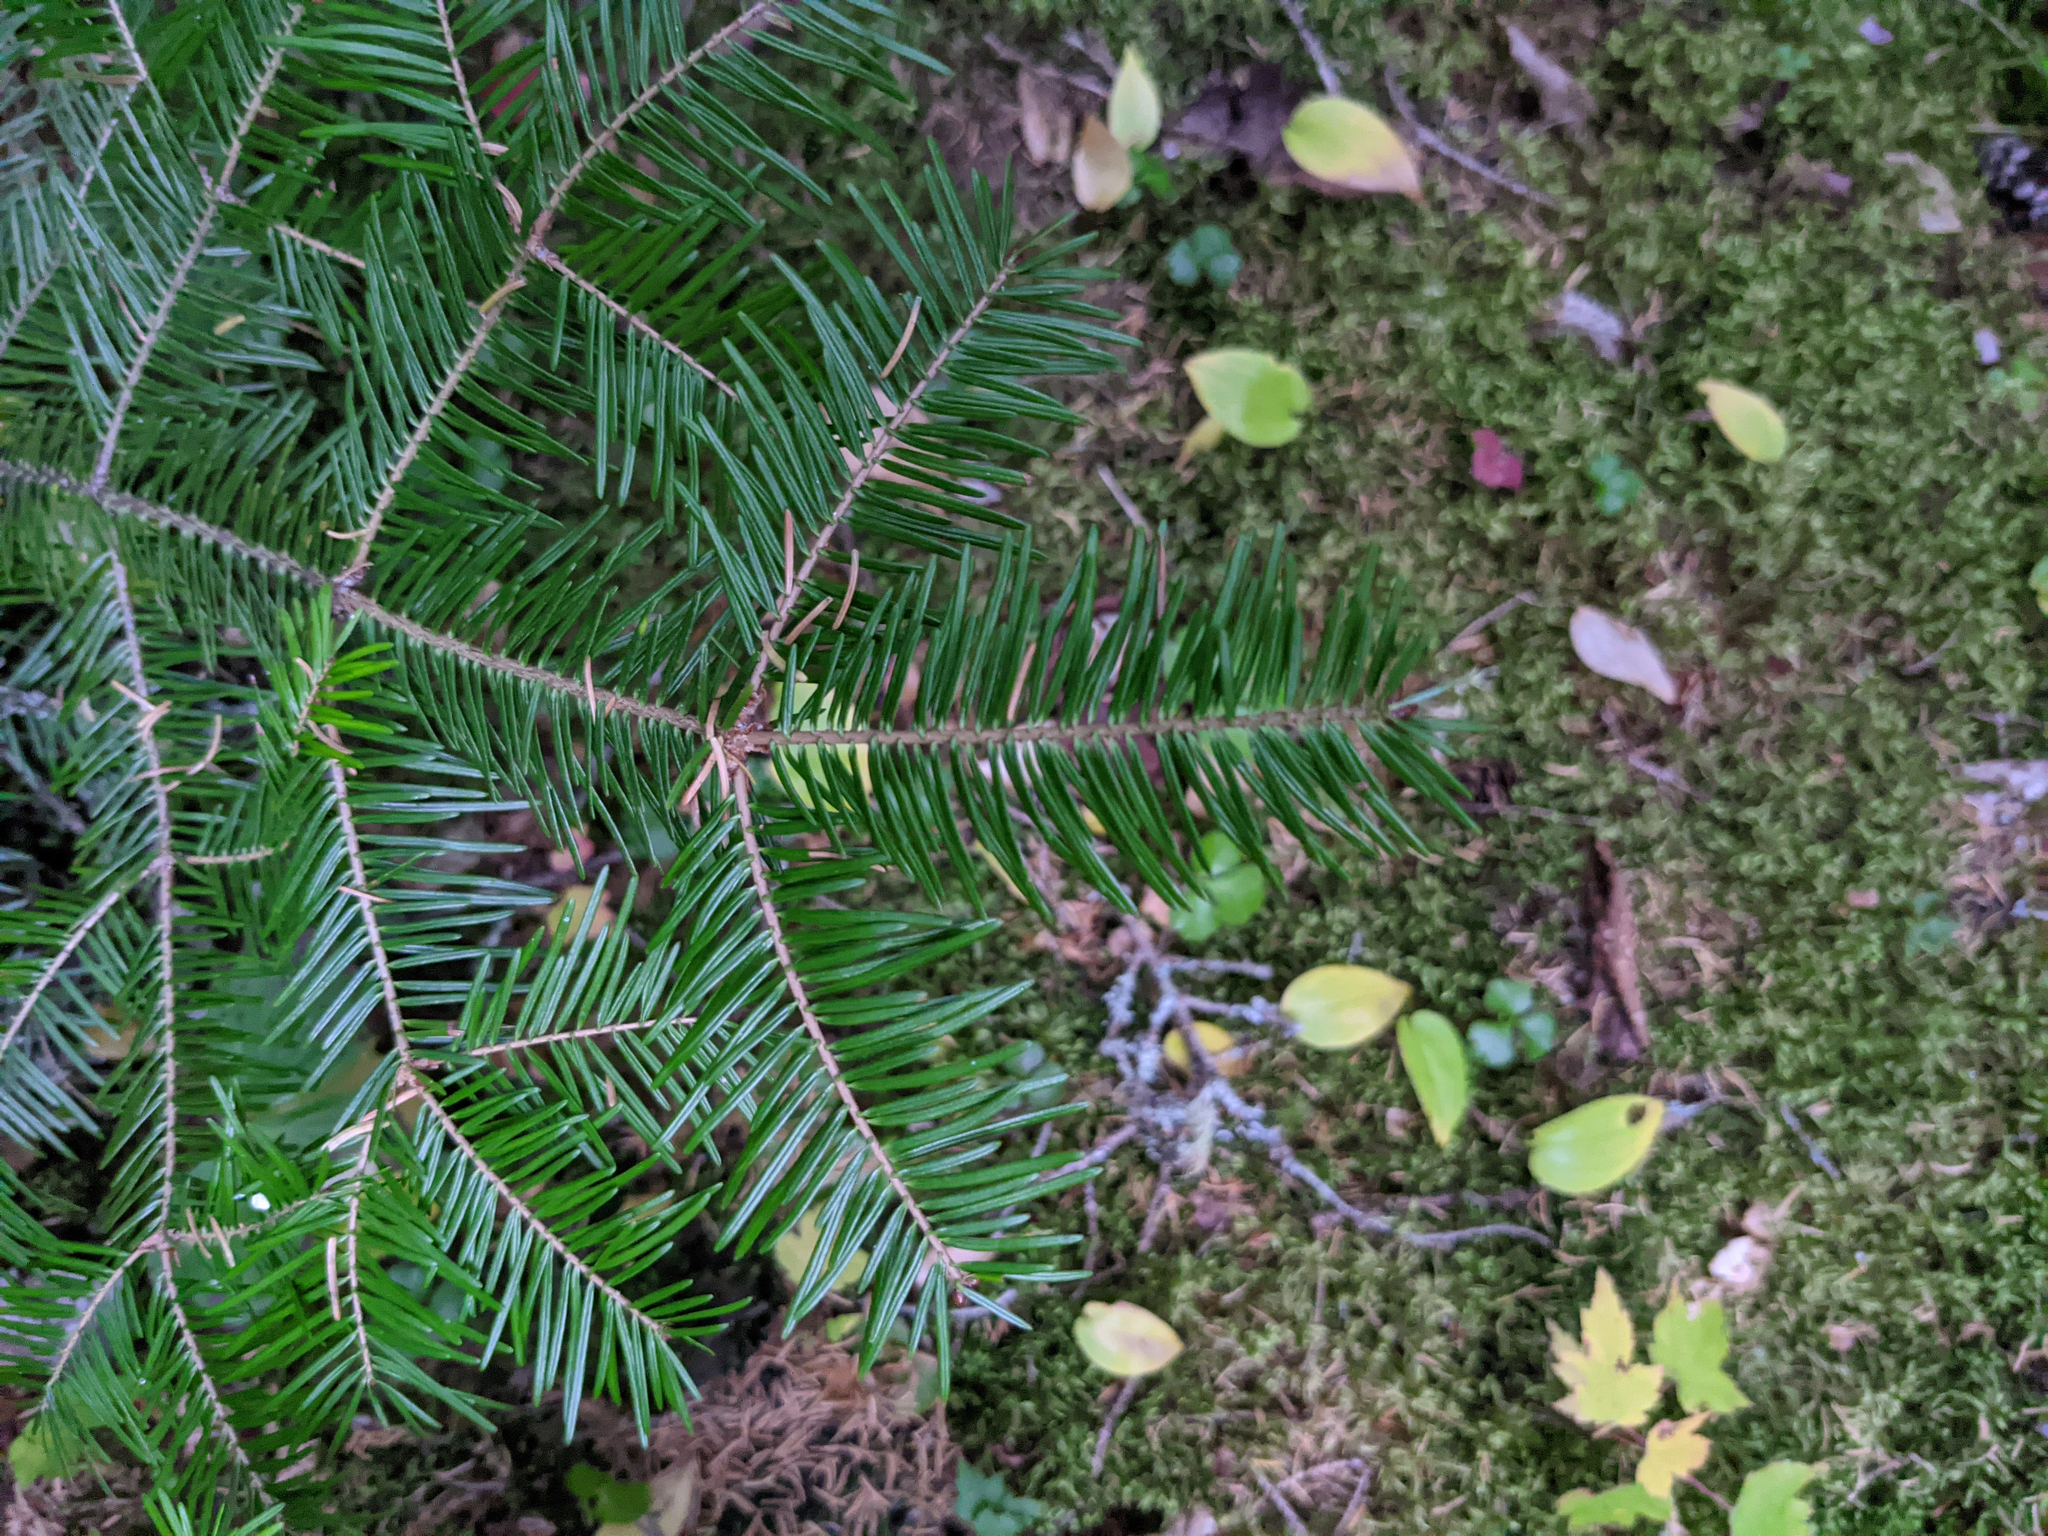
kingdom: Plantae
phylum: Tracheophyta
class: Pinopsida
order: Pinales
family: Pinaceae
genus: Abies
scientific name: Abies balsamea
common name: Balsam fir
